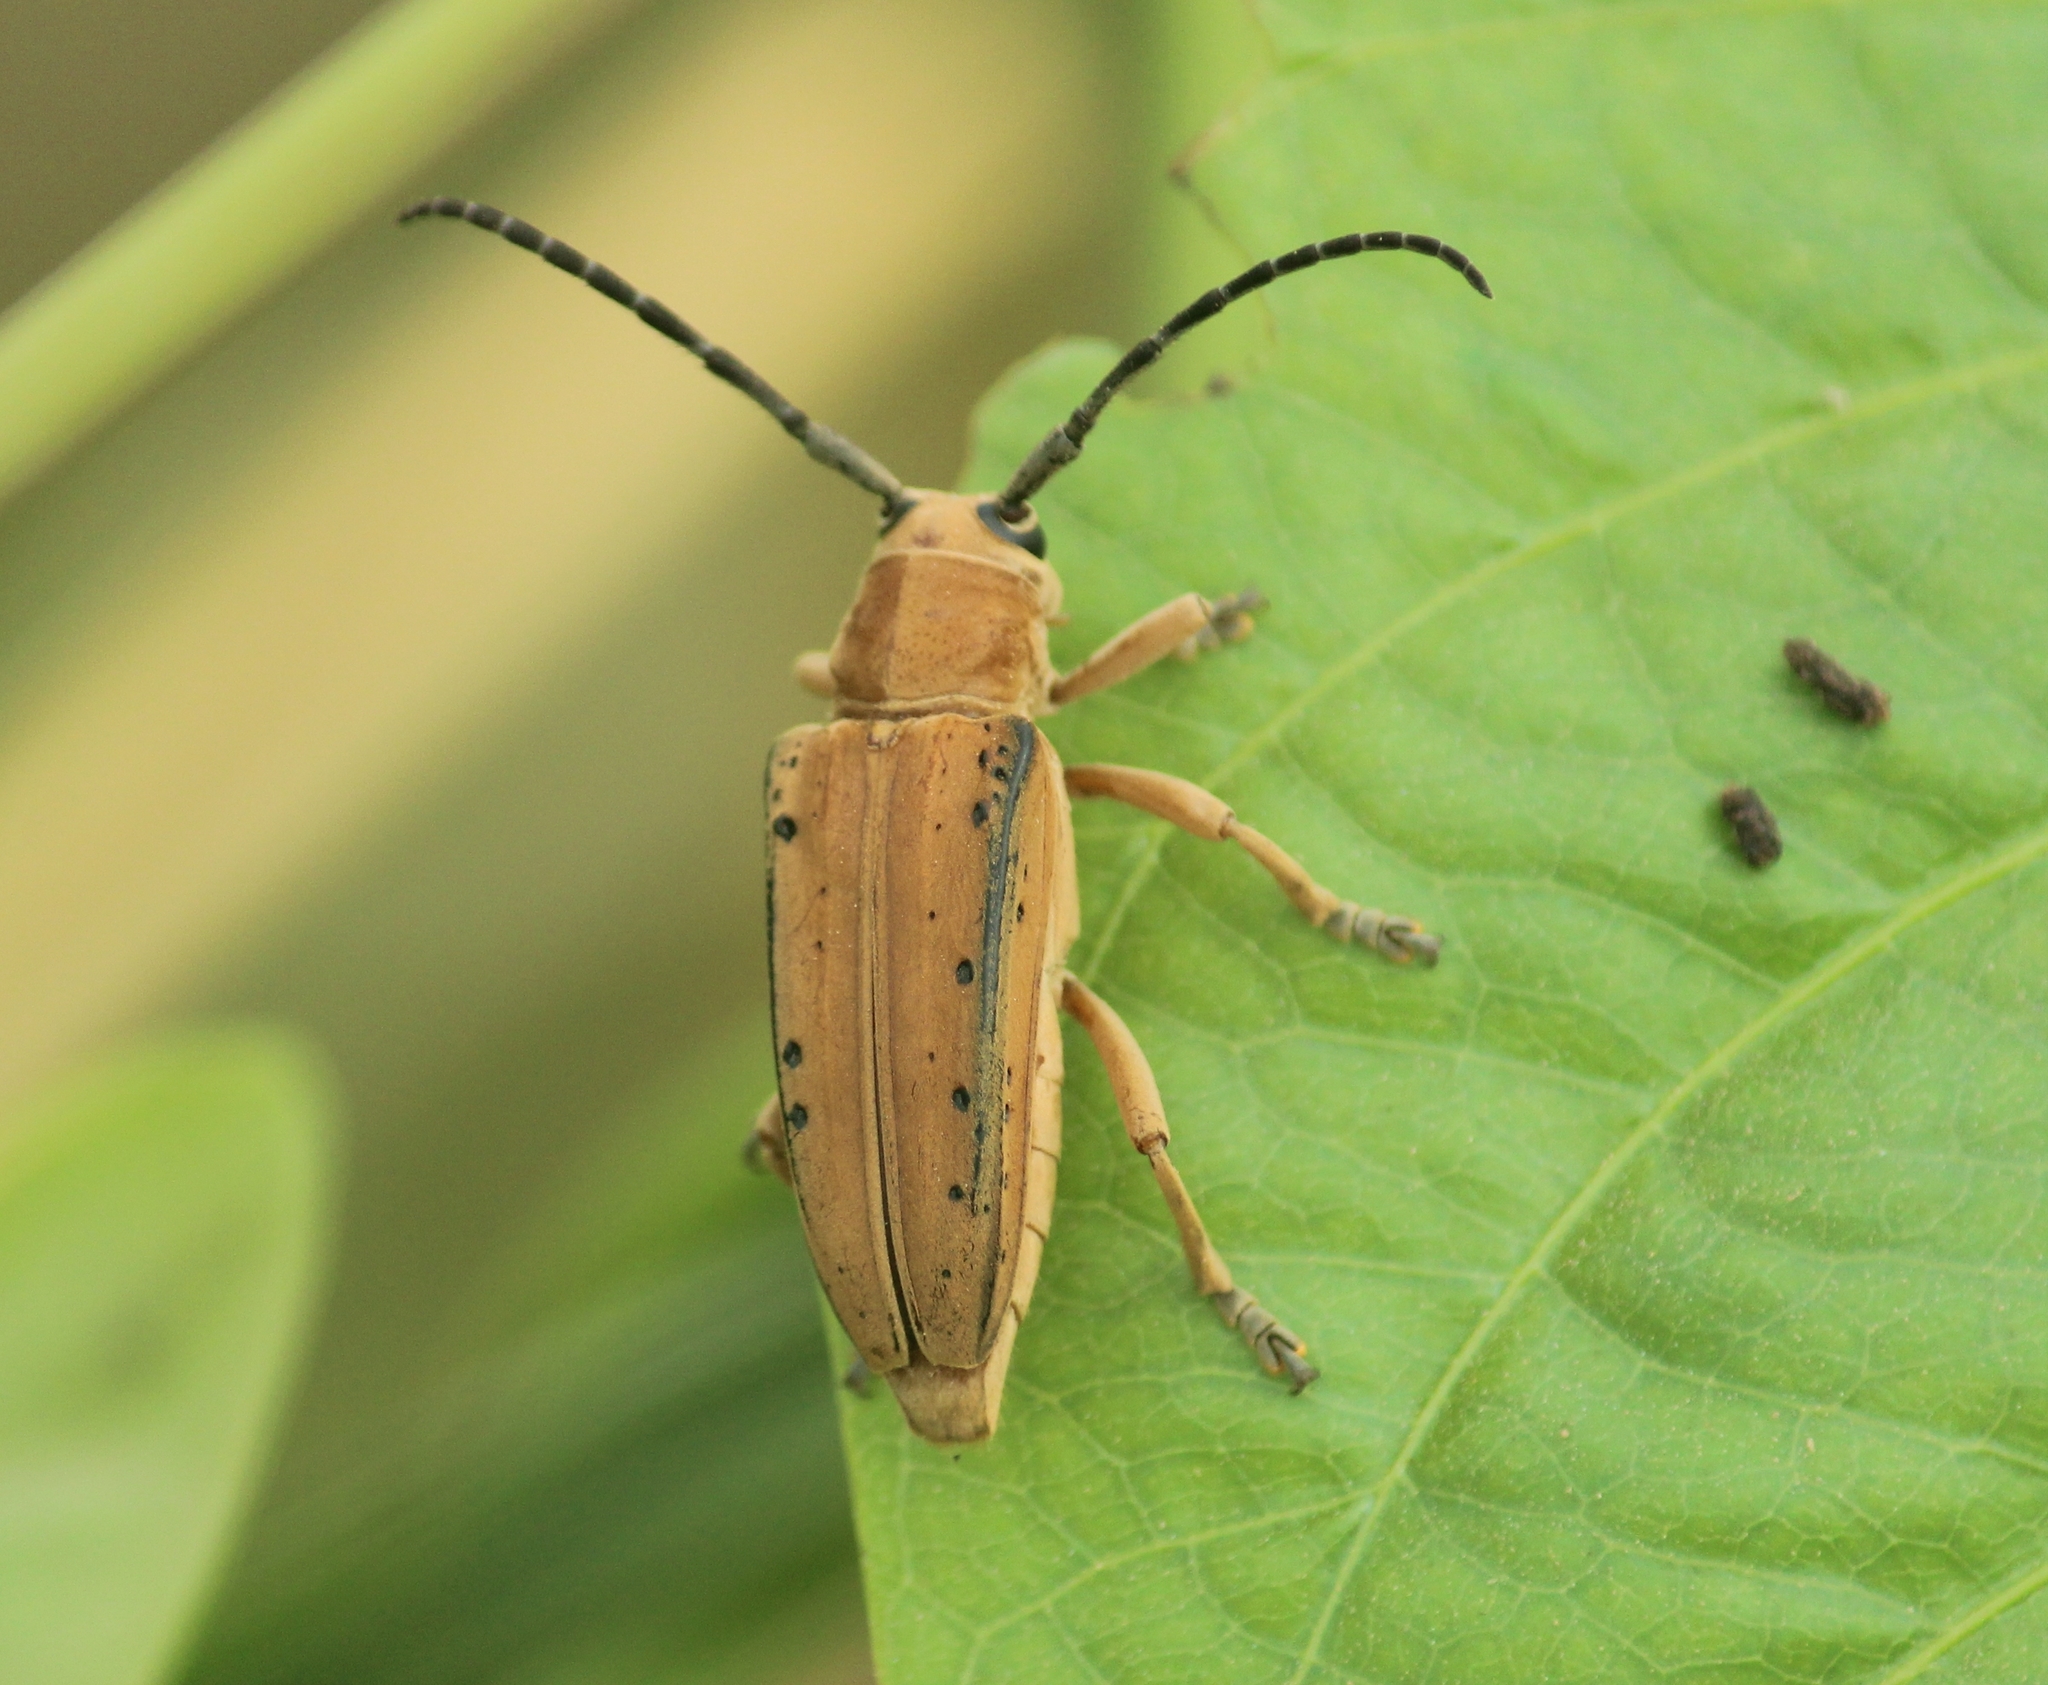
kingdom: Animalia
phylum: Arthropoda
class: Insecta
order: Coleoptera
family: Cerambycidae
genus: Stibara
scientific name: Stibara morbillosa
